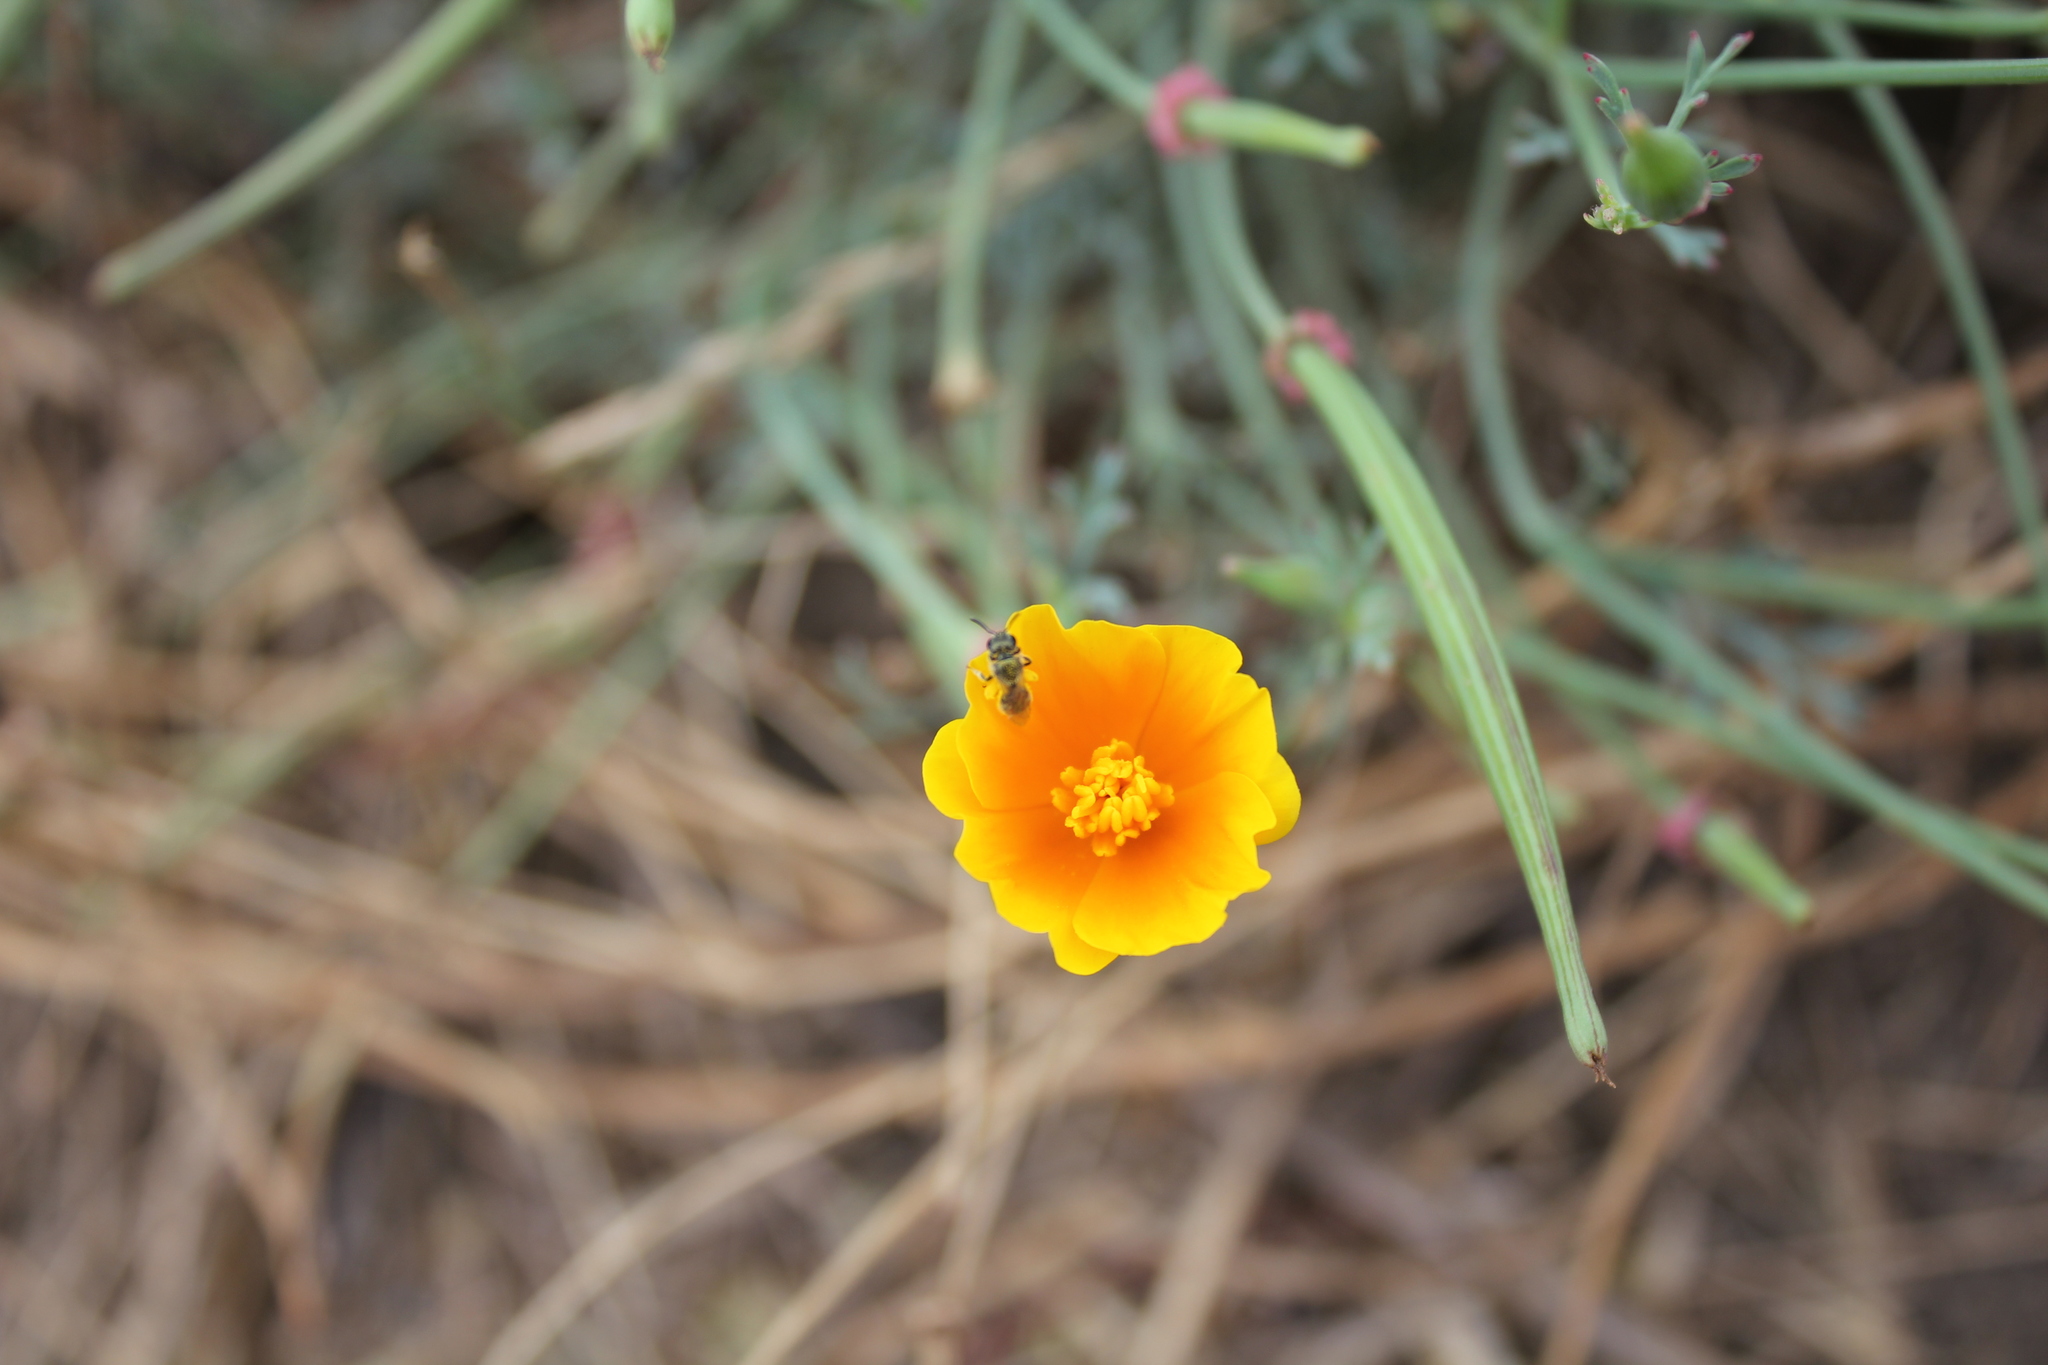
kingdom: Plantae
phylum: Tracheophyta
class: Magnoliopsida
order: Ranunculales
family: Papaveraceae
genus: Eschscholzia
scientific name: Eschscholzia californica
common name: California poppy
